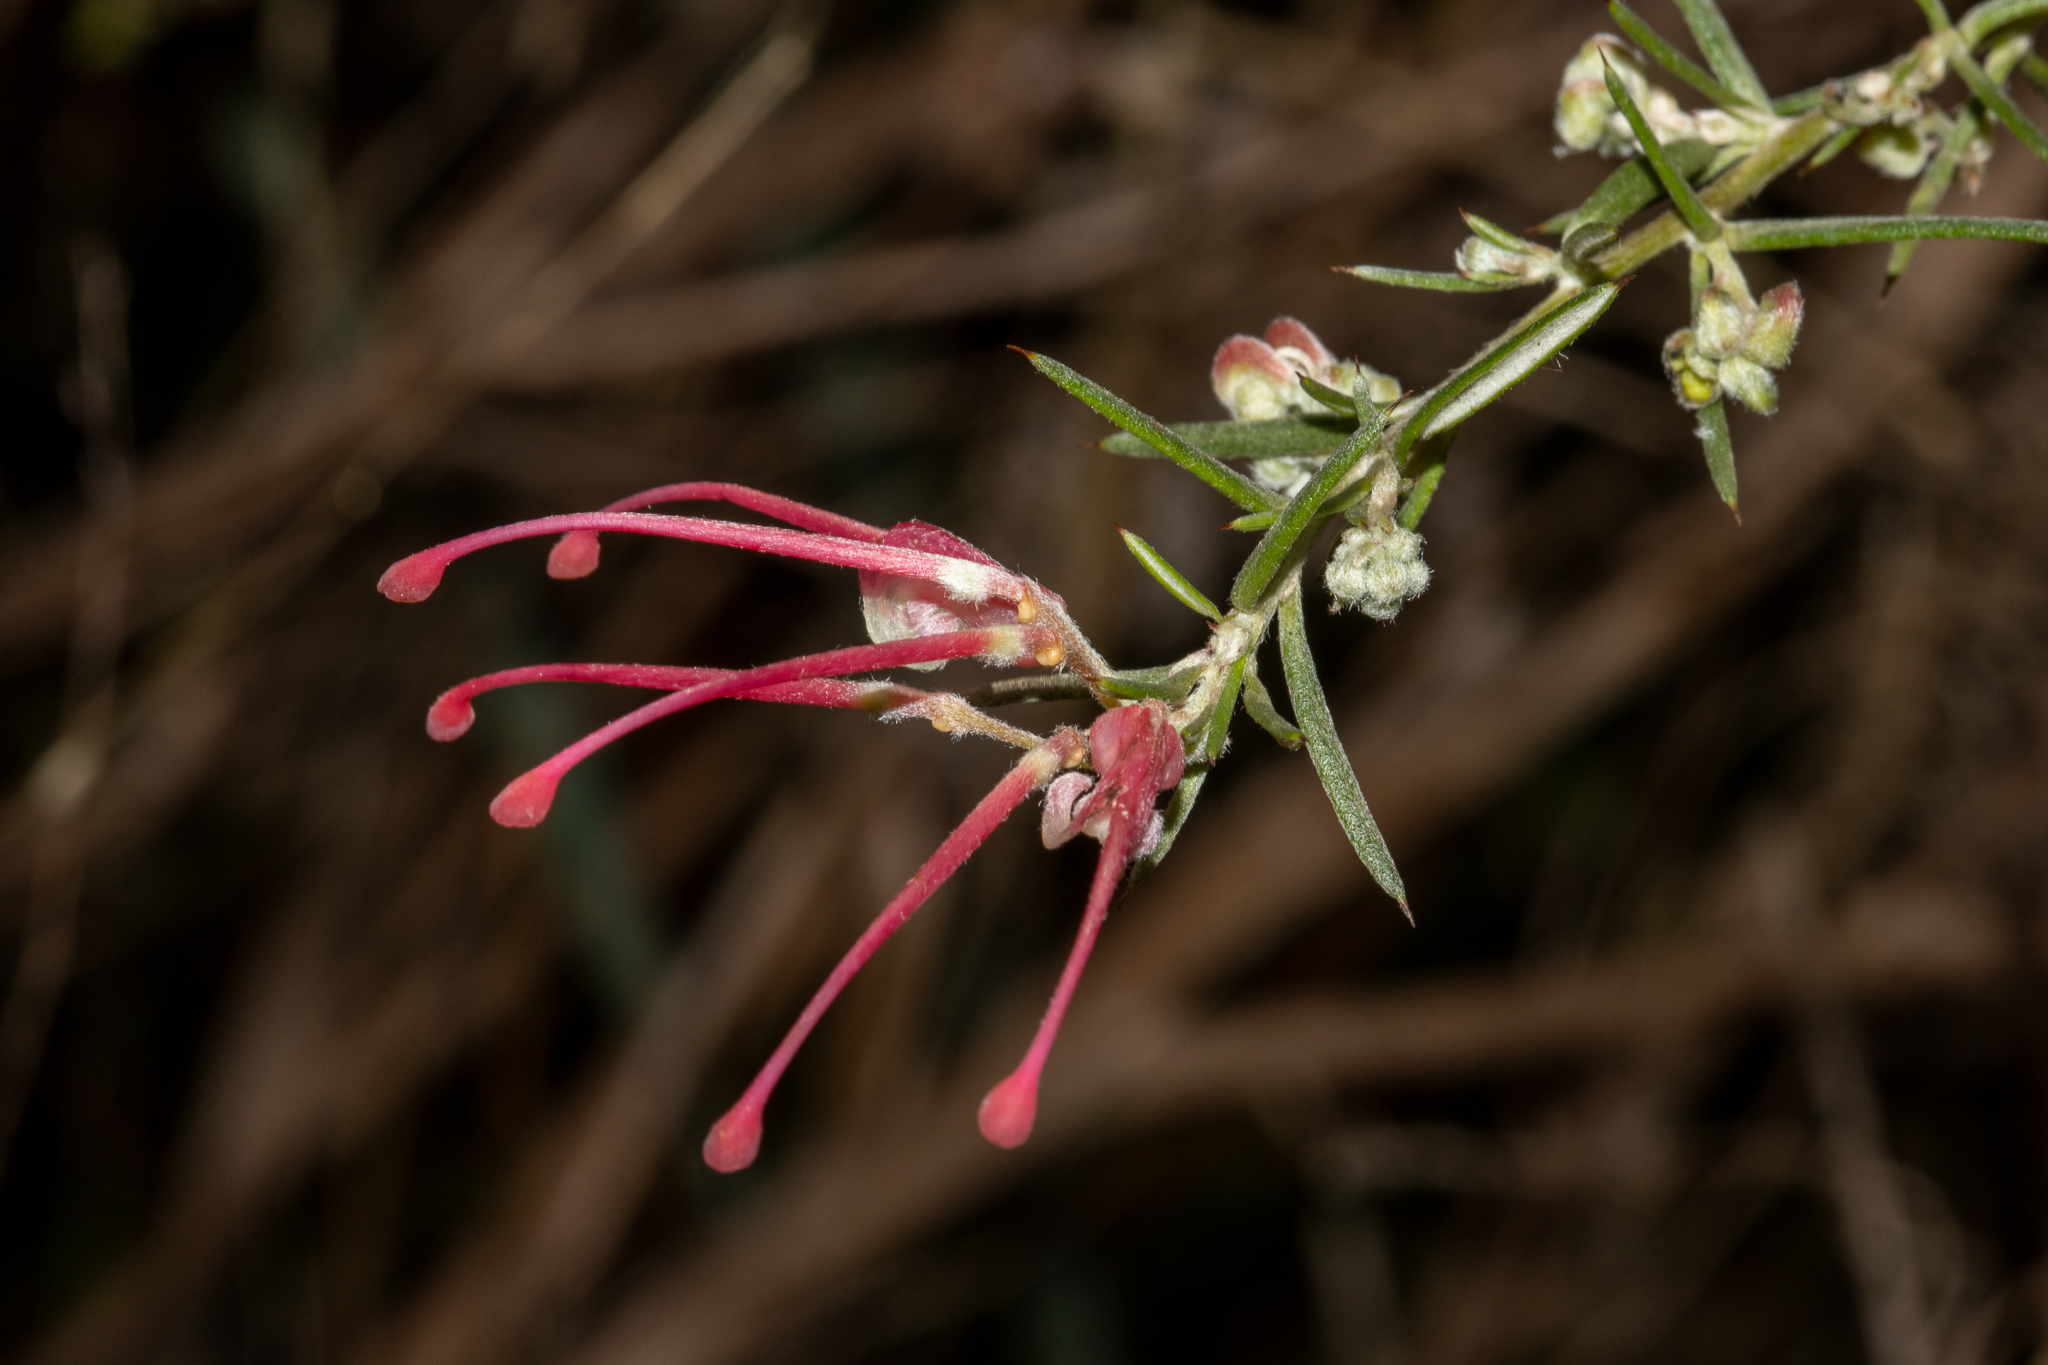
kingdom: Plantae
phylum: Tracheophyta
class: Magnoliopsida
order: Proteales
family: Proteaceae
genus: Grevillea
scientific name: Grevillea lavandulacea
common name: Lavender grevillea
